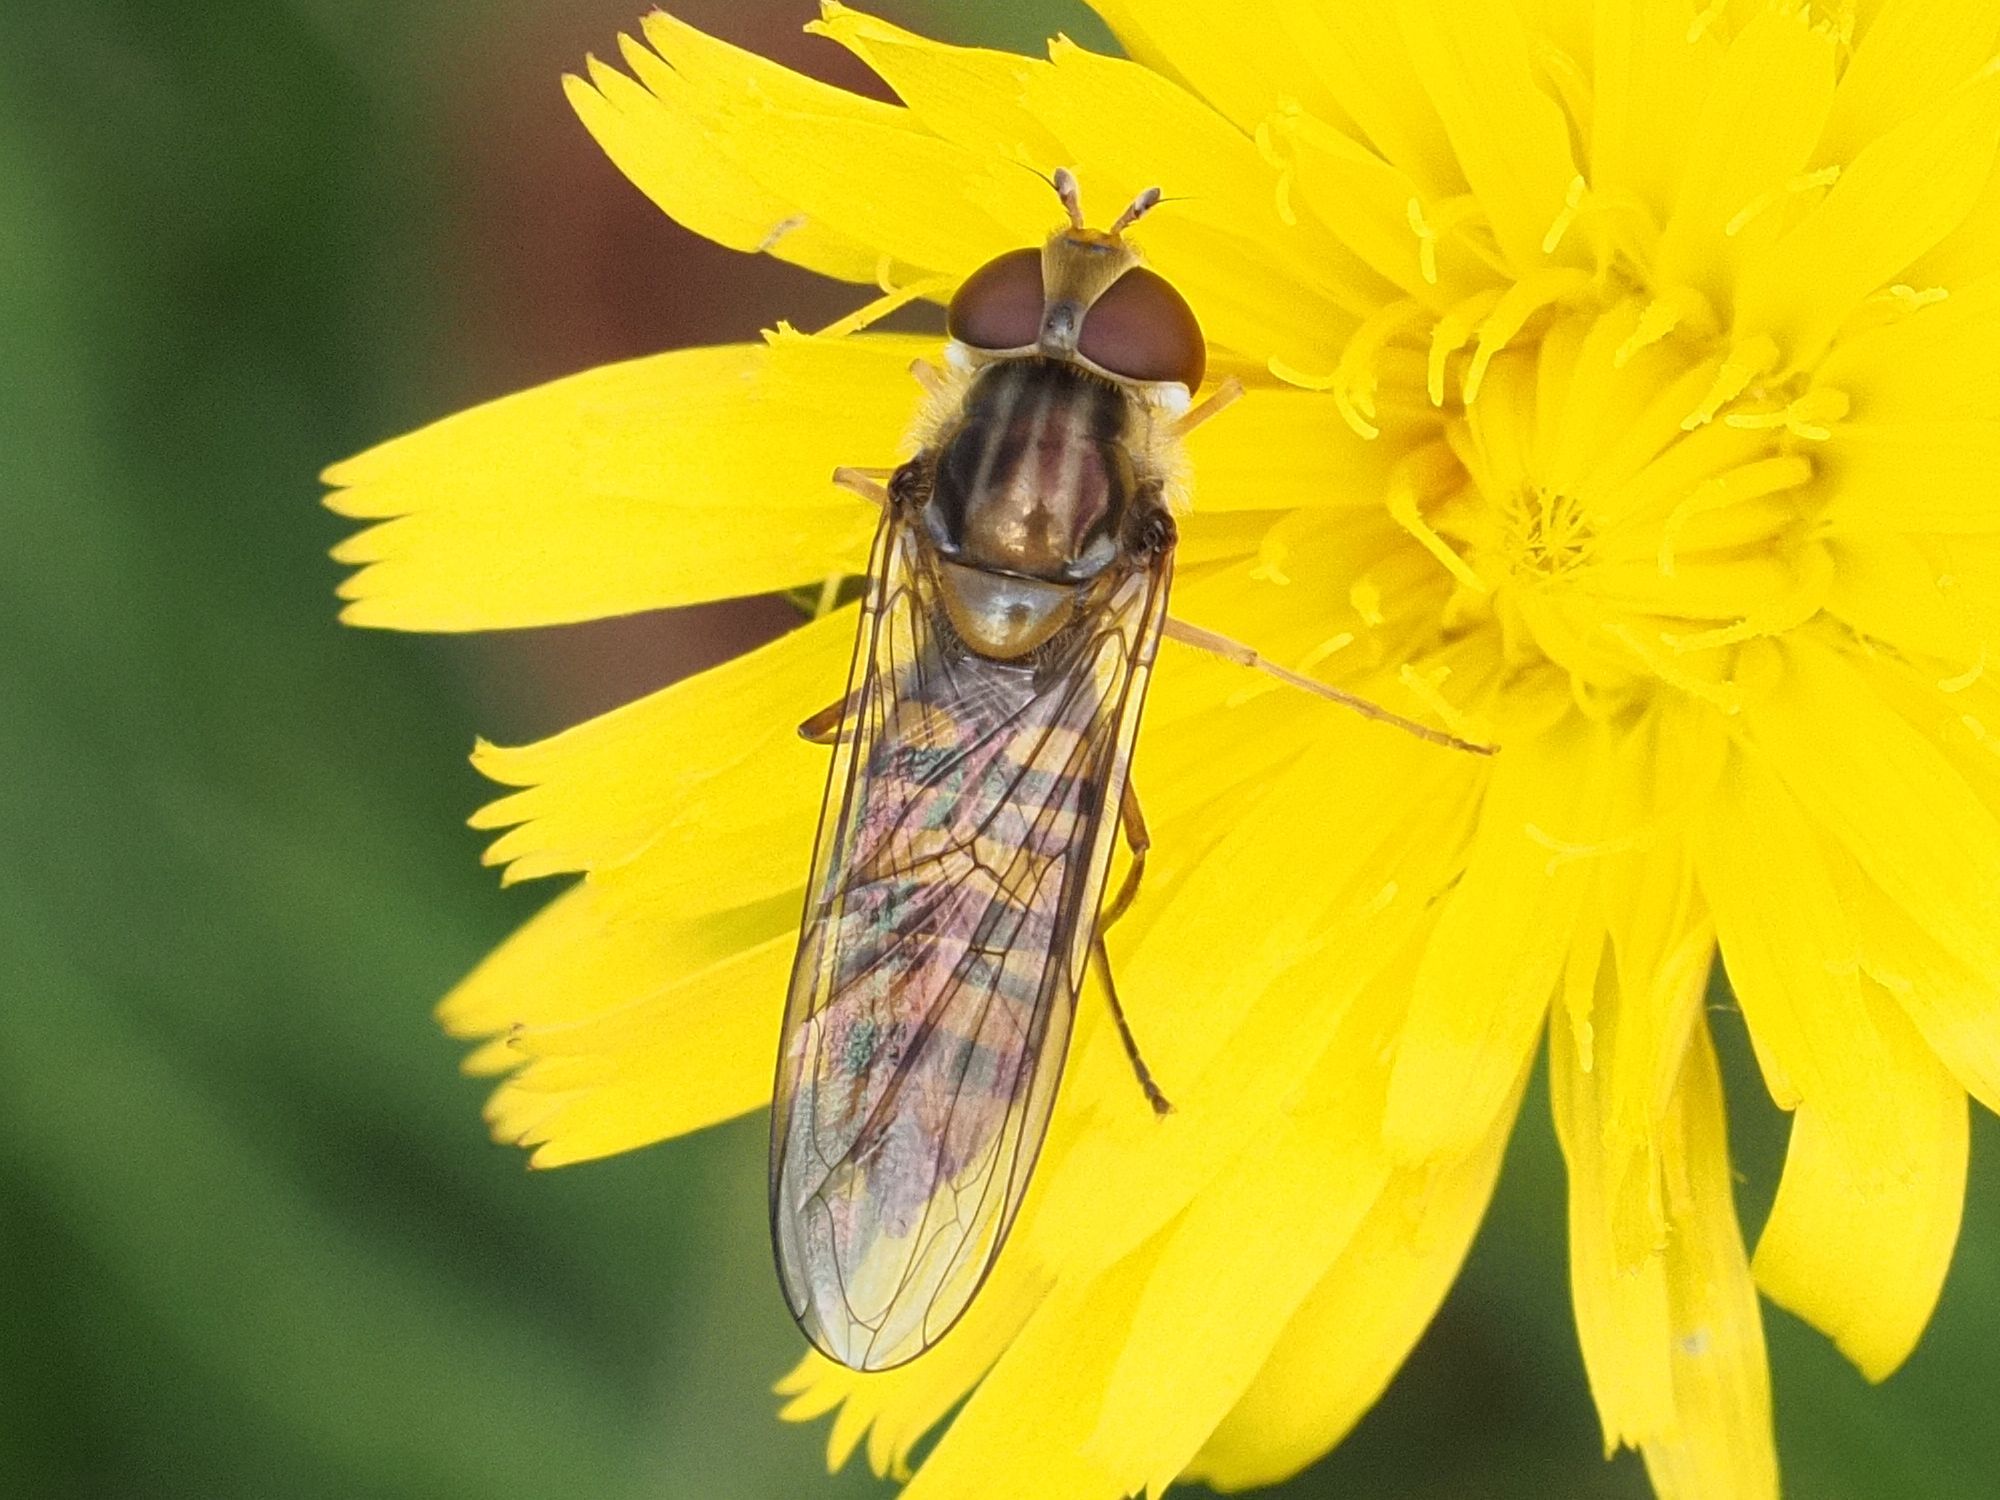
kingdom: Animalia
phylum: Arthropoda
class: Insecta
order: Diptera
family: Syrphidae
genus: Episyrphus
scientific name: Episyrphus balteatus
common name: Marmalade hoverfly
